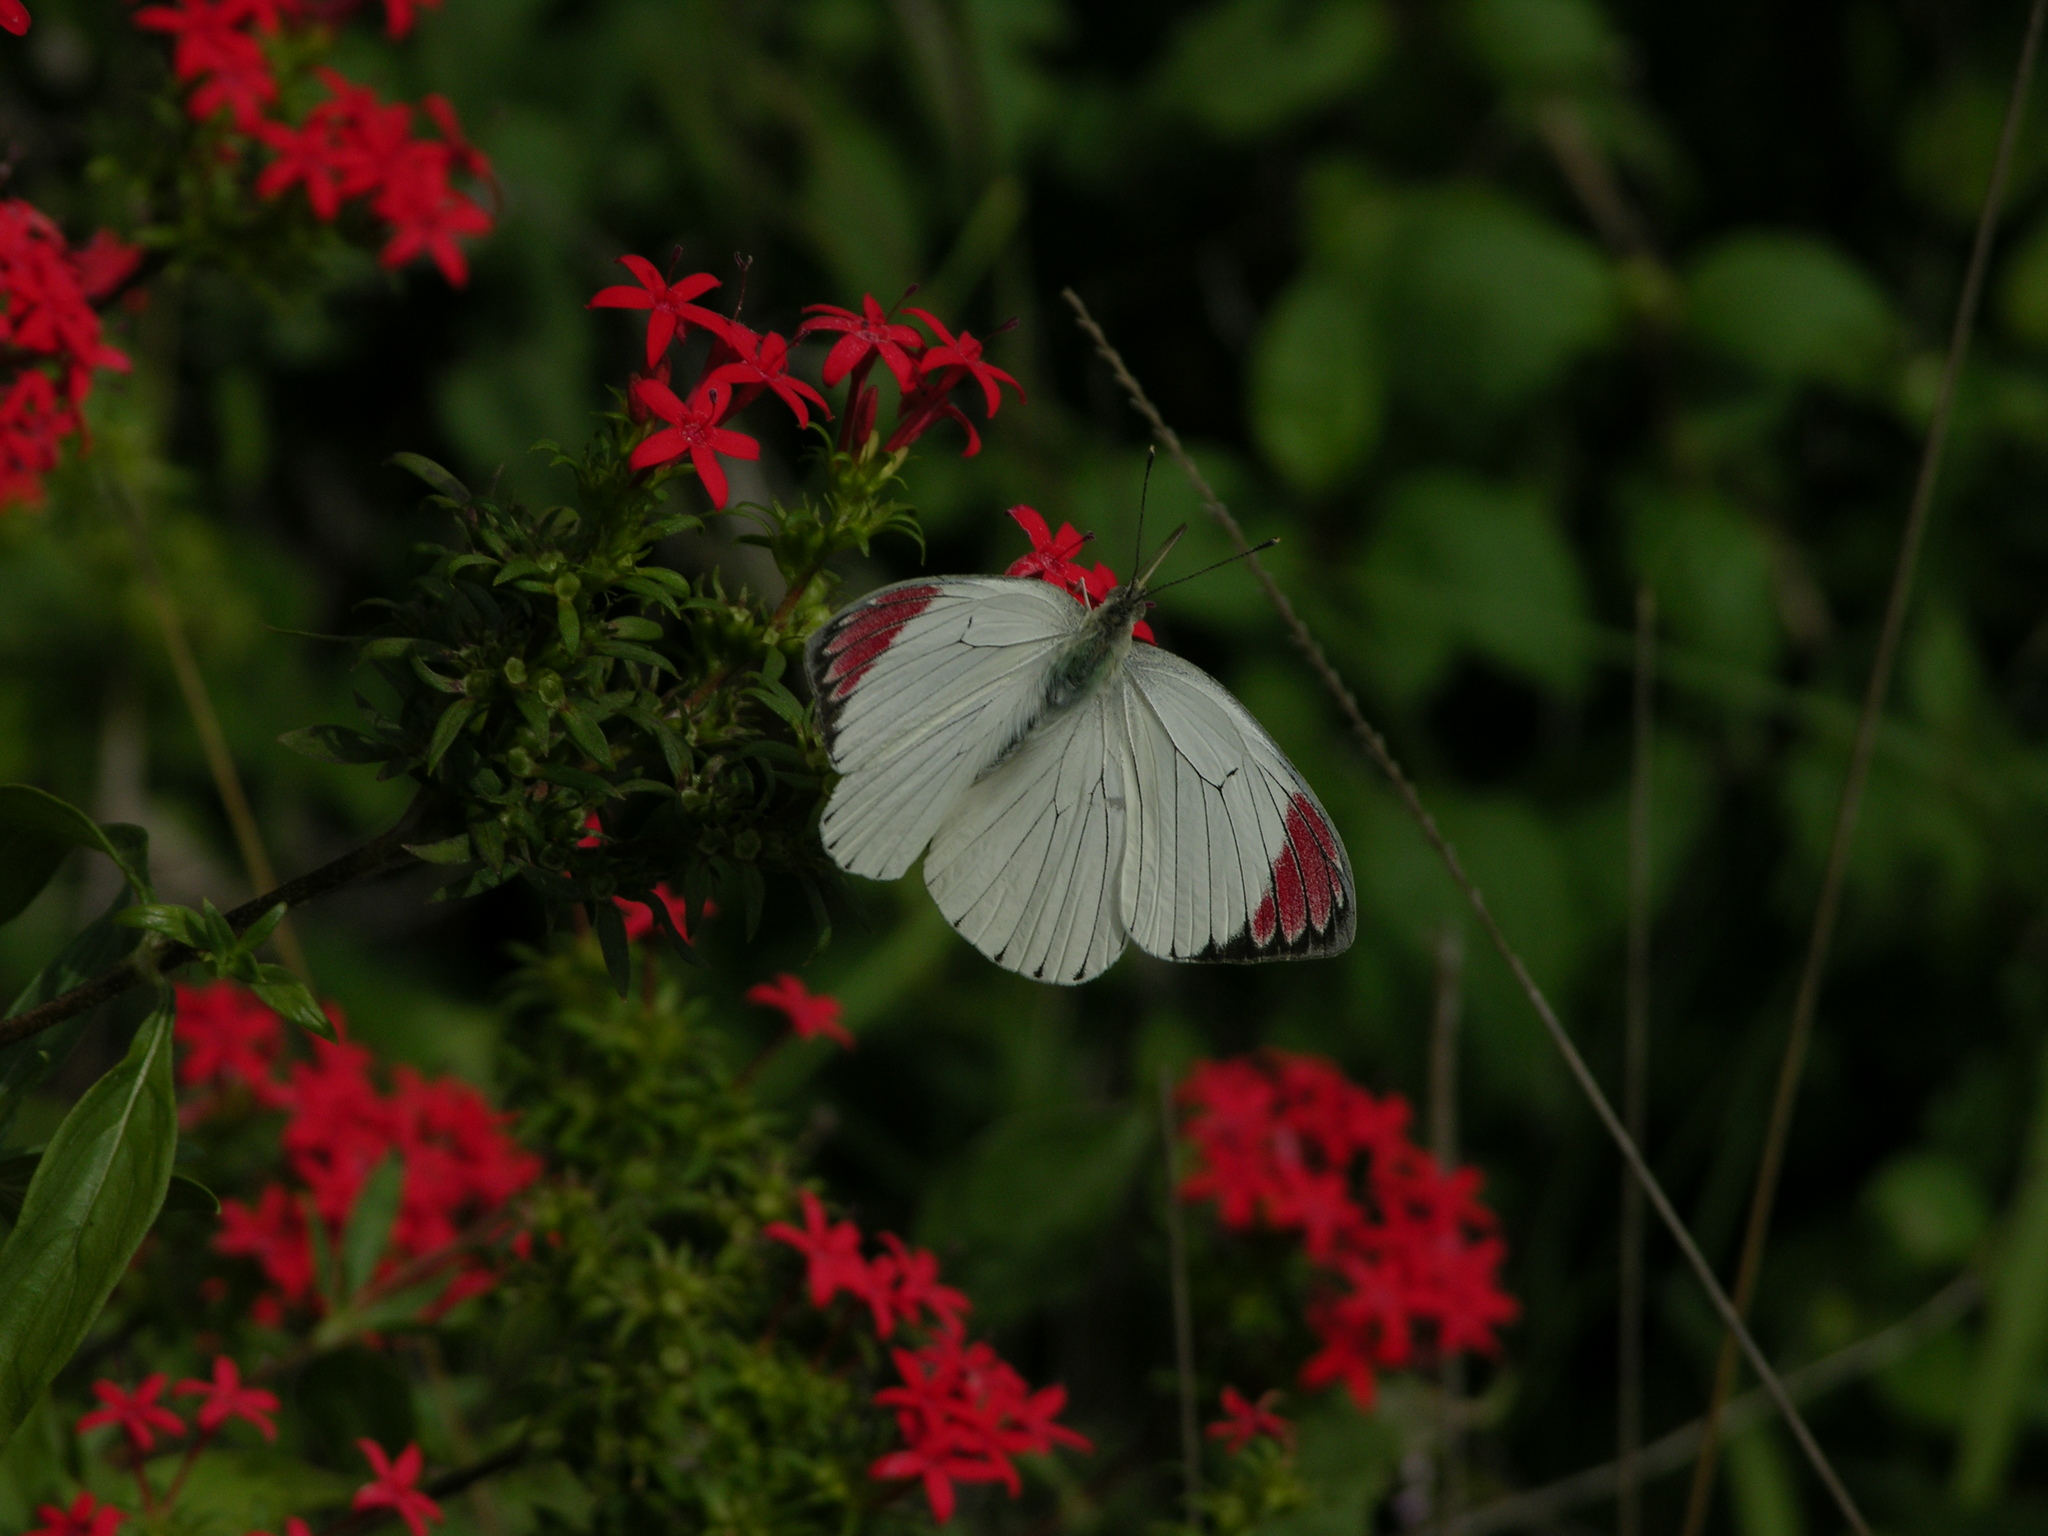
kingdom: Animalia
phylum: Arthropoda
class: Insecta
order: Lepidoptera
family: Pieridae
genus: Colotis
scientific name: Colotis hetaera
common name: Coast purple tip
